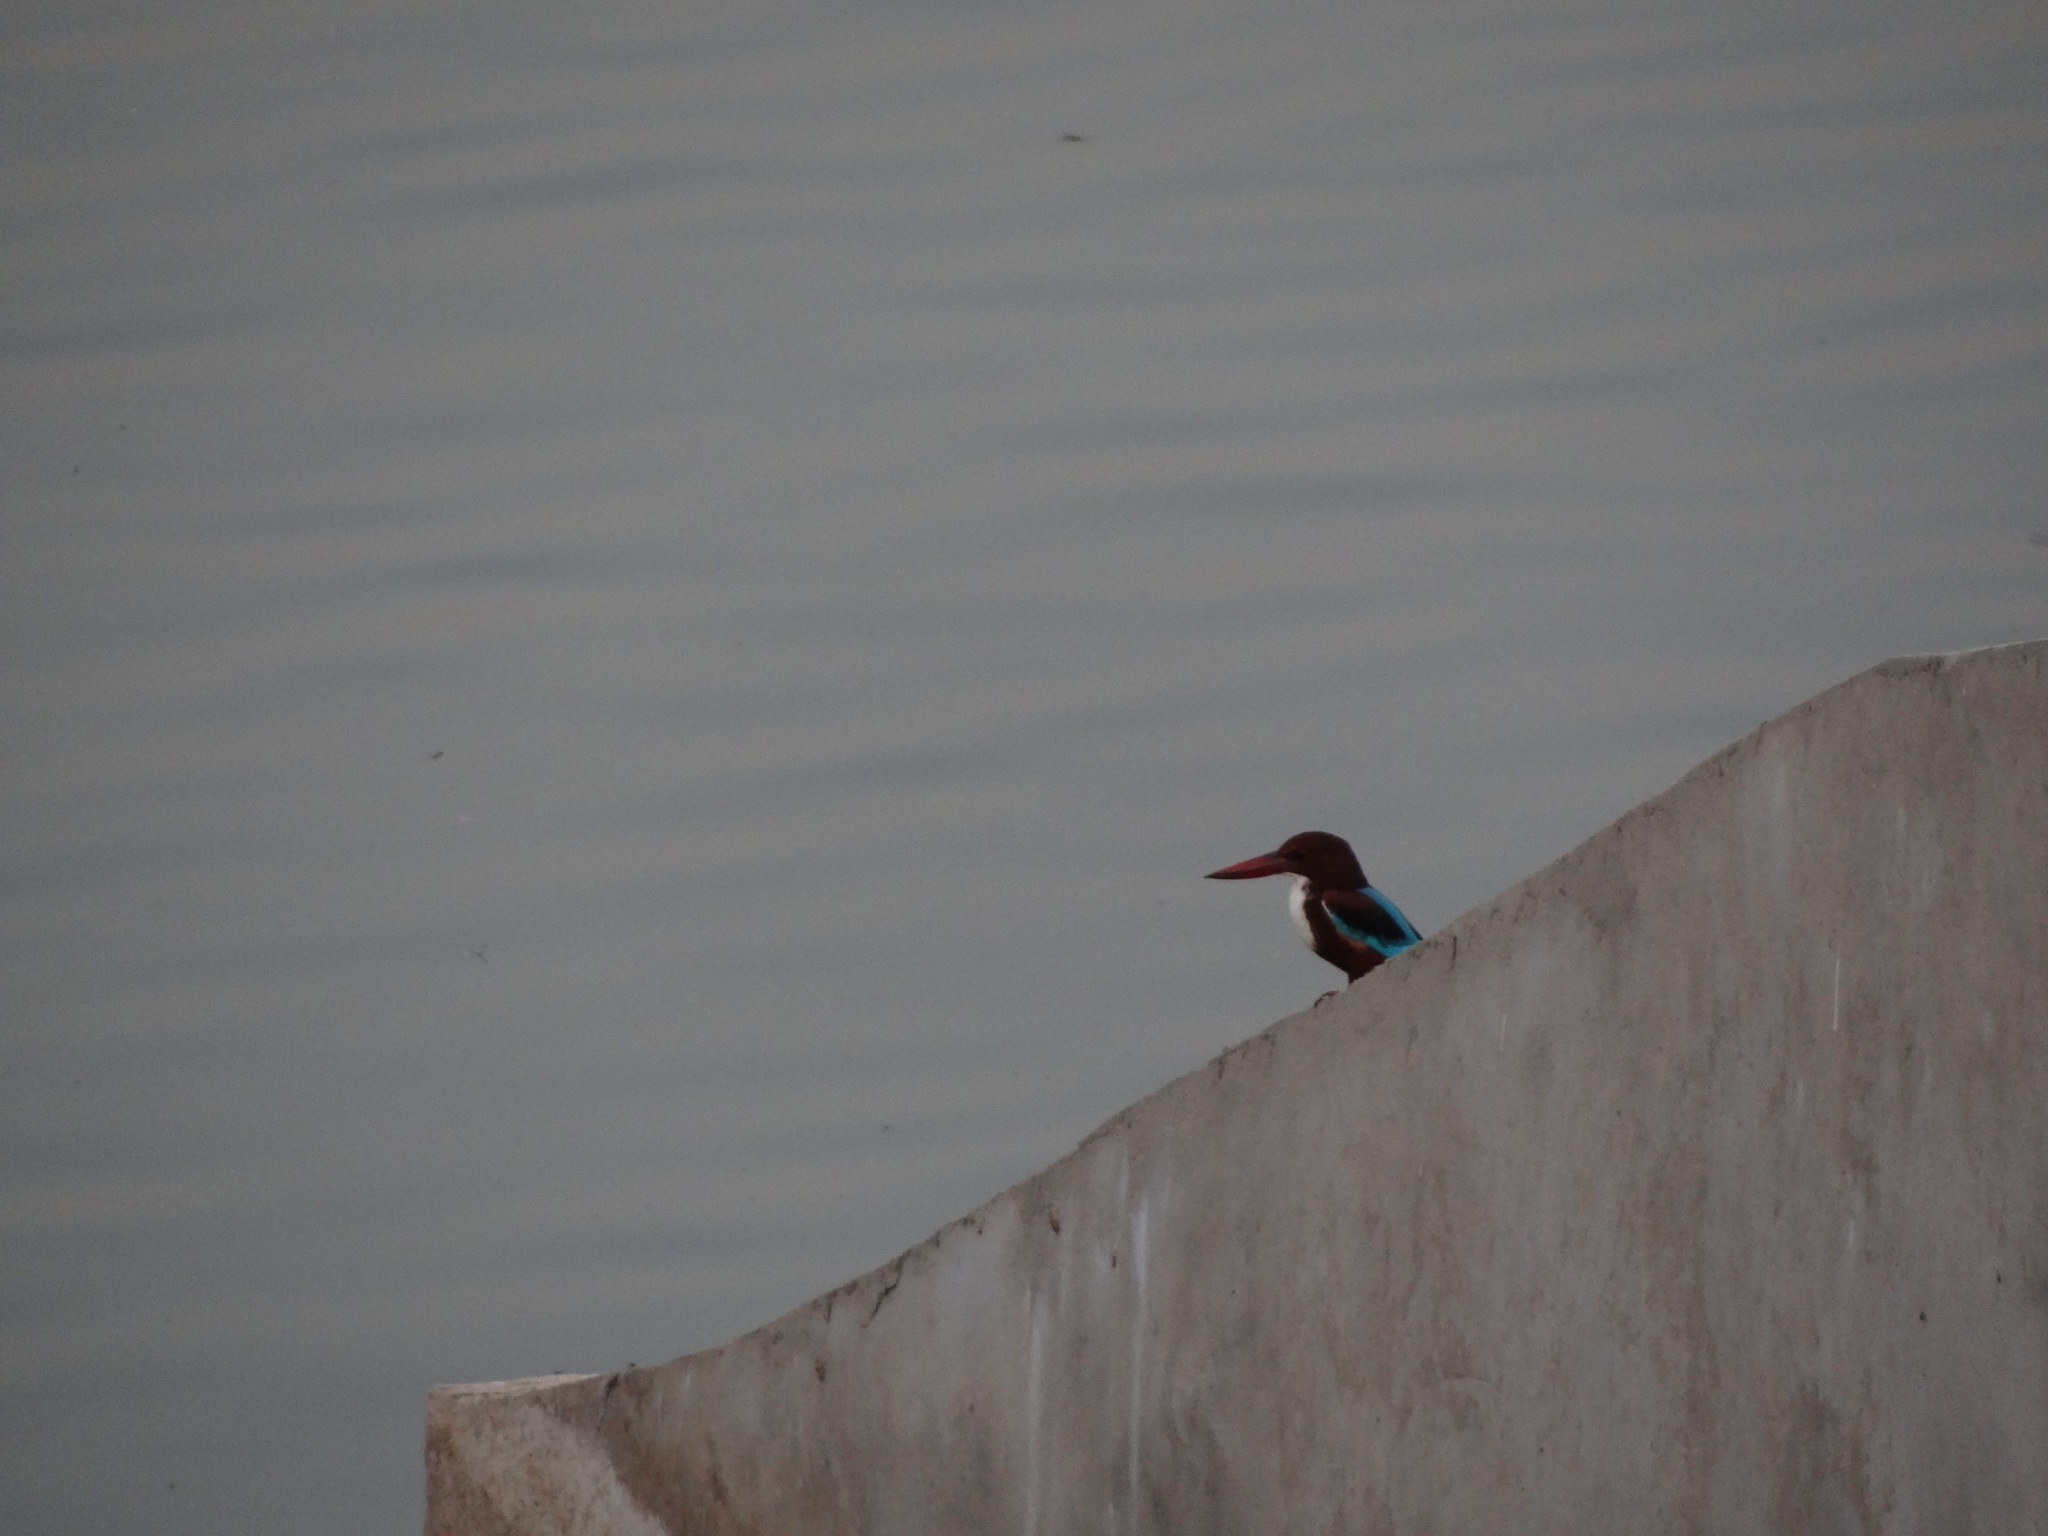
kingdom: Animalia
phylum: Chordata
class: Aves
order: Coraciiformes
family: Alcedinidae
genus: Halcyon
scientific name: Halcyon smyrnensis
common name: White-throated kingfisher
